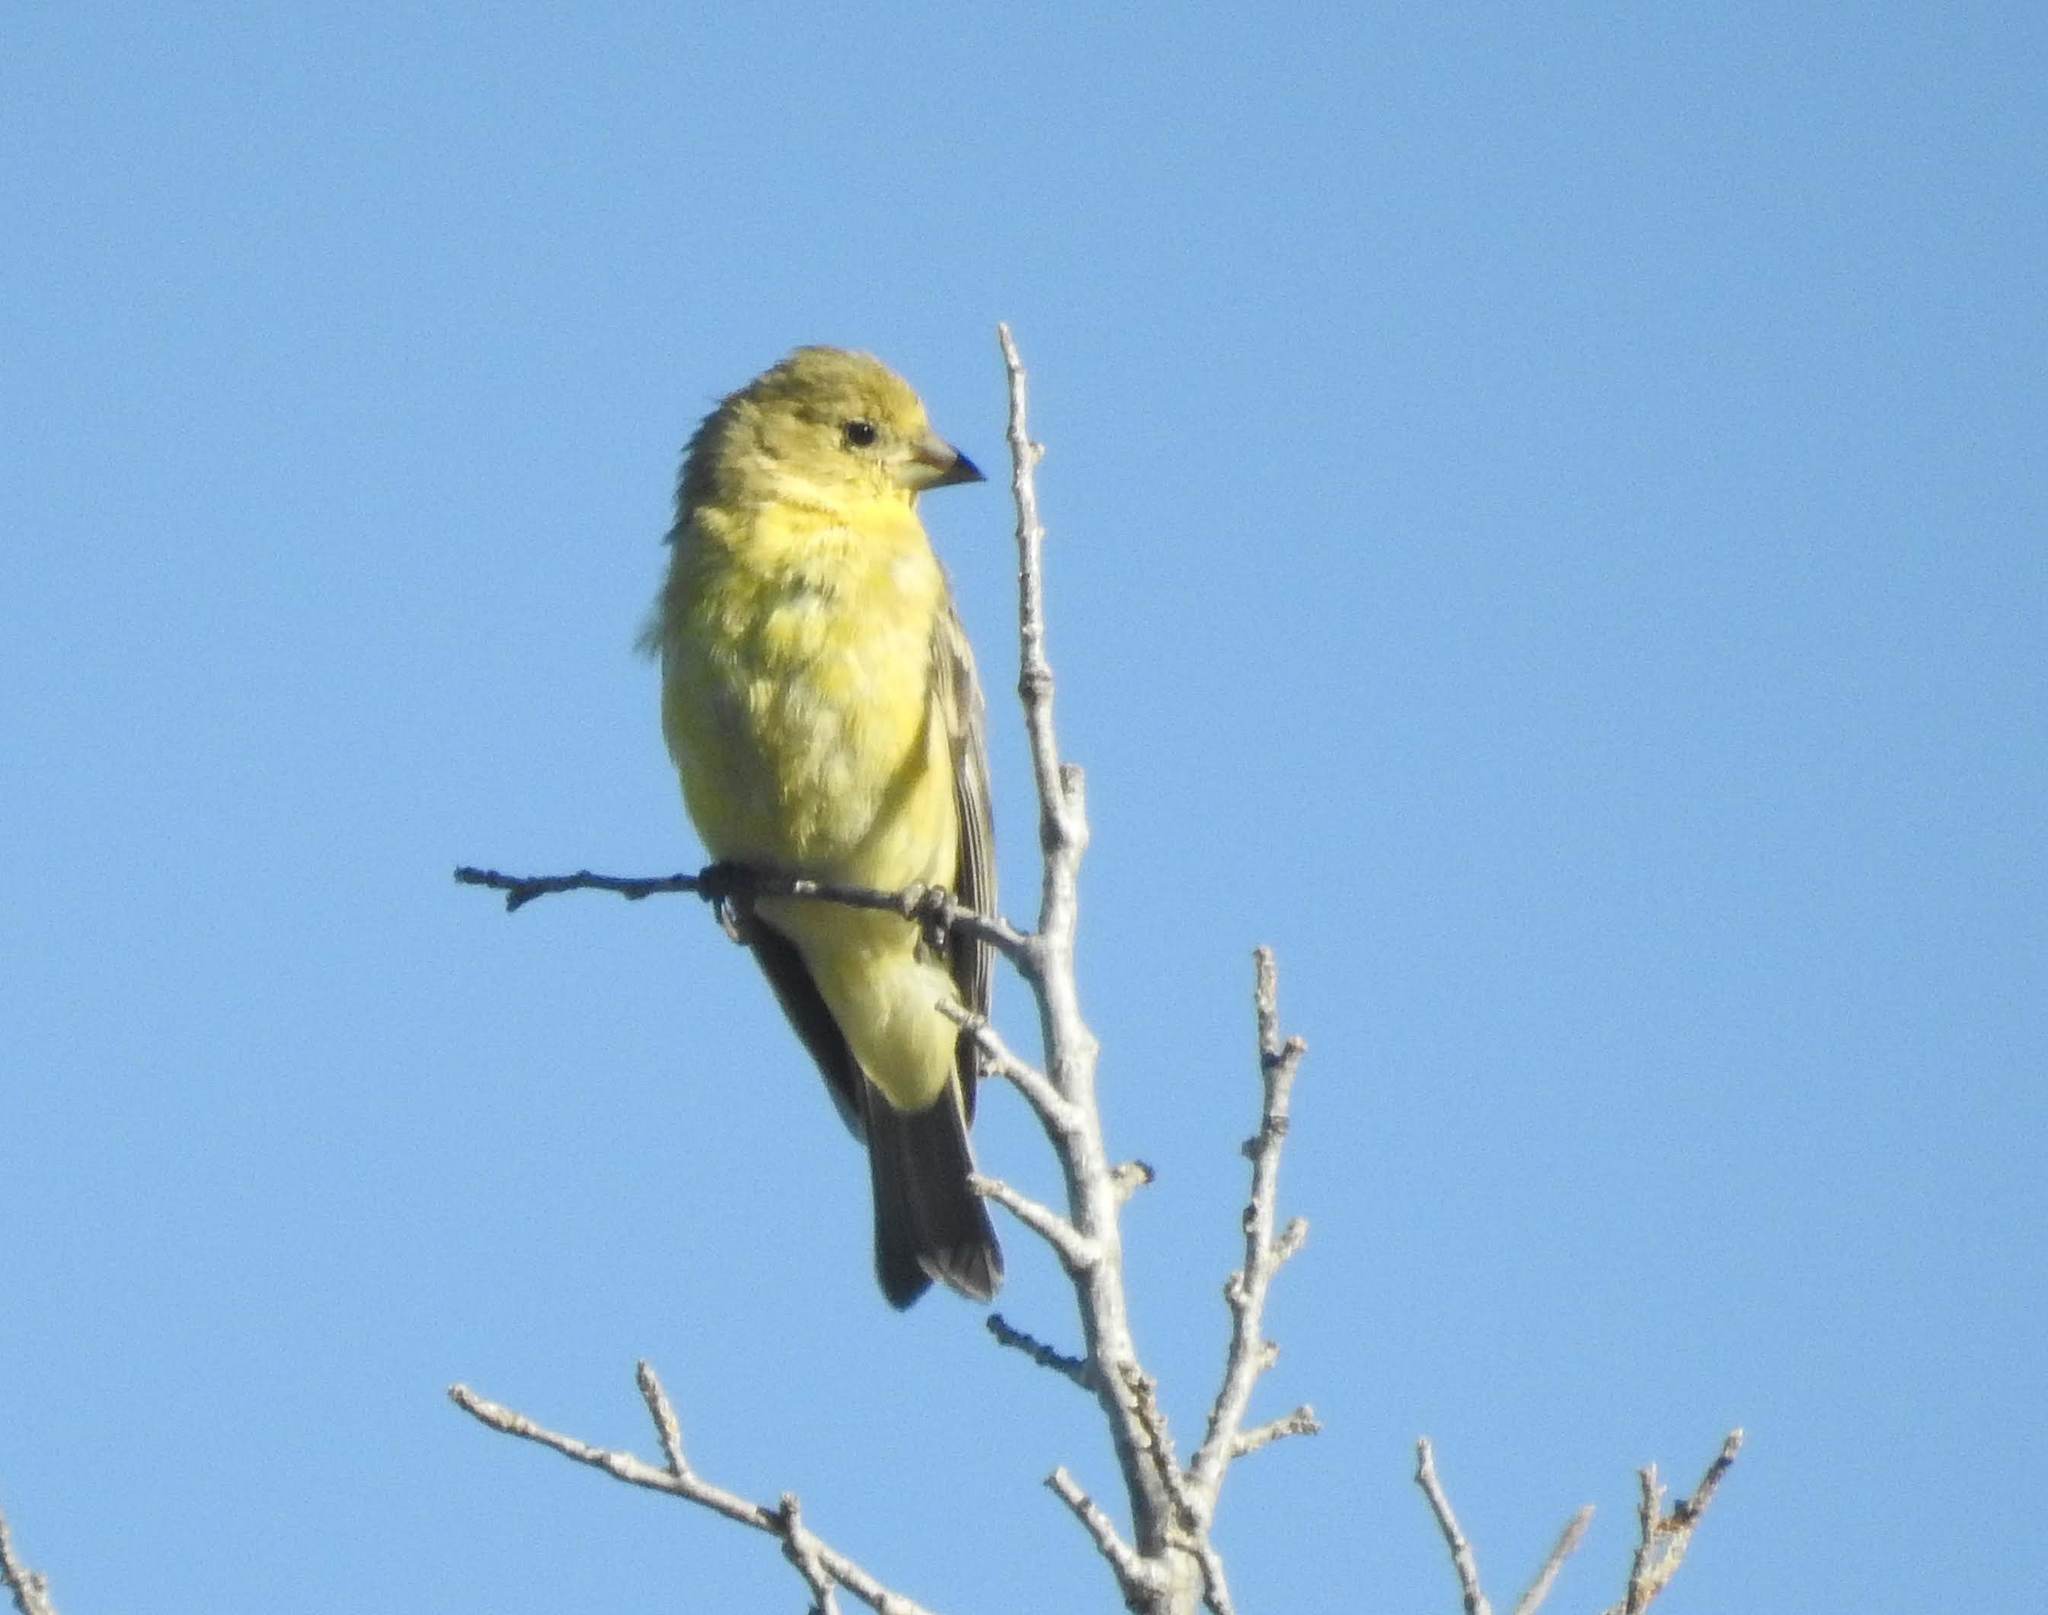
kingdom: Animalia
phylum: Chordata
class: Aves
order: Passeriformes
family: Fringillidae
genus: Spinus
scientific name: Spinus psaltria
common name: Lesser goldfinch
